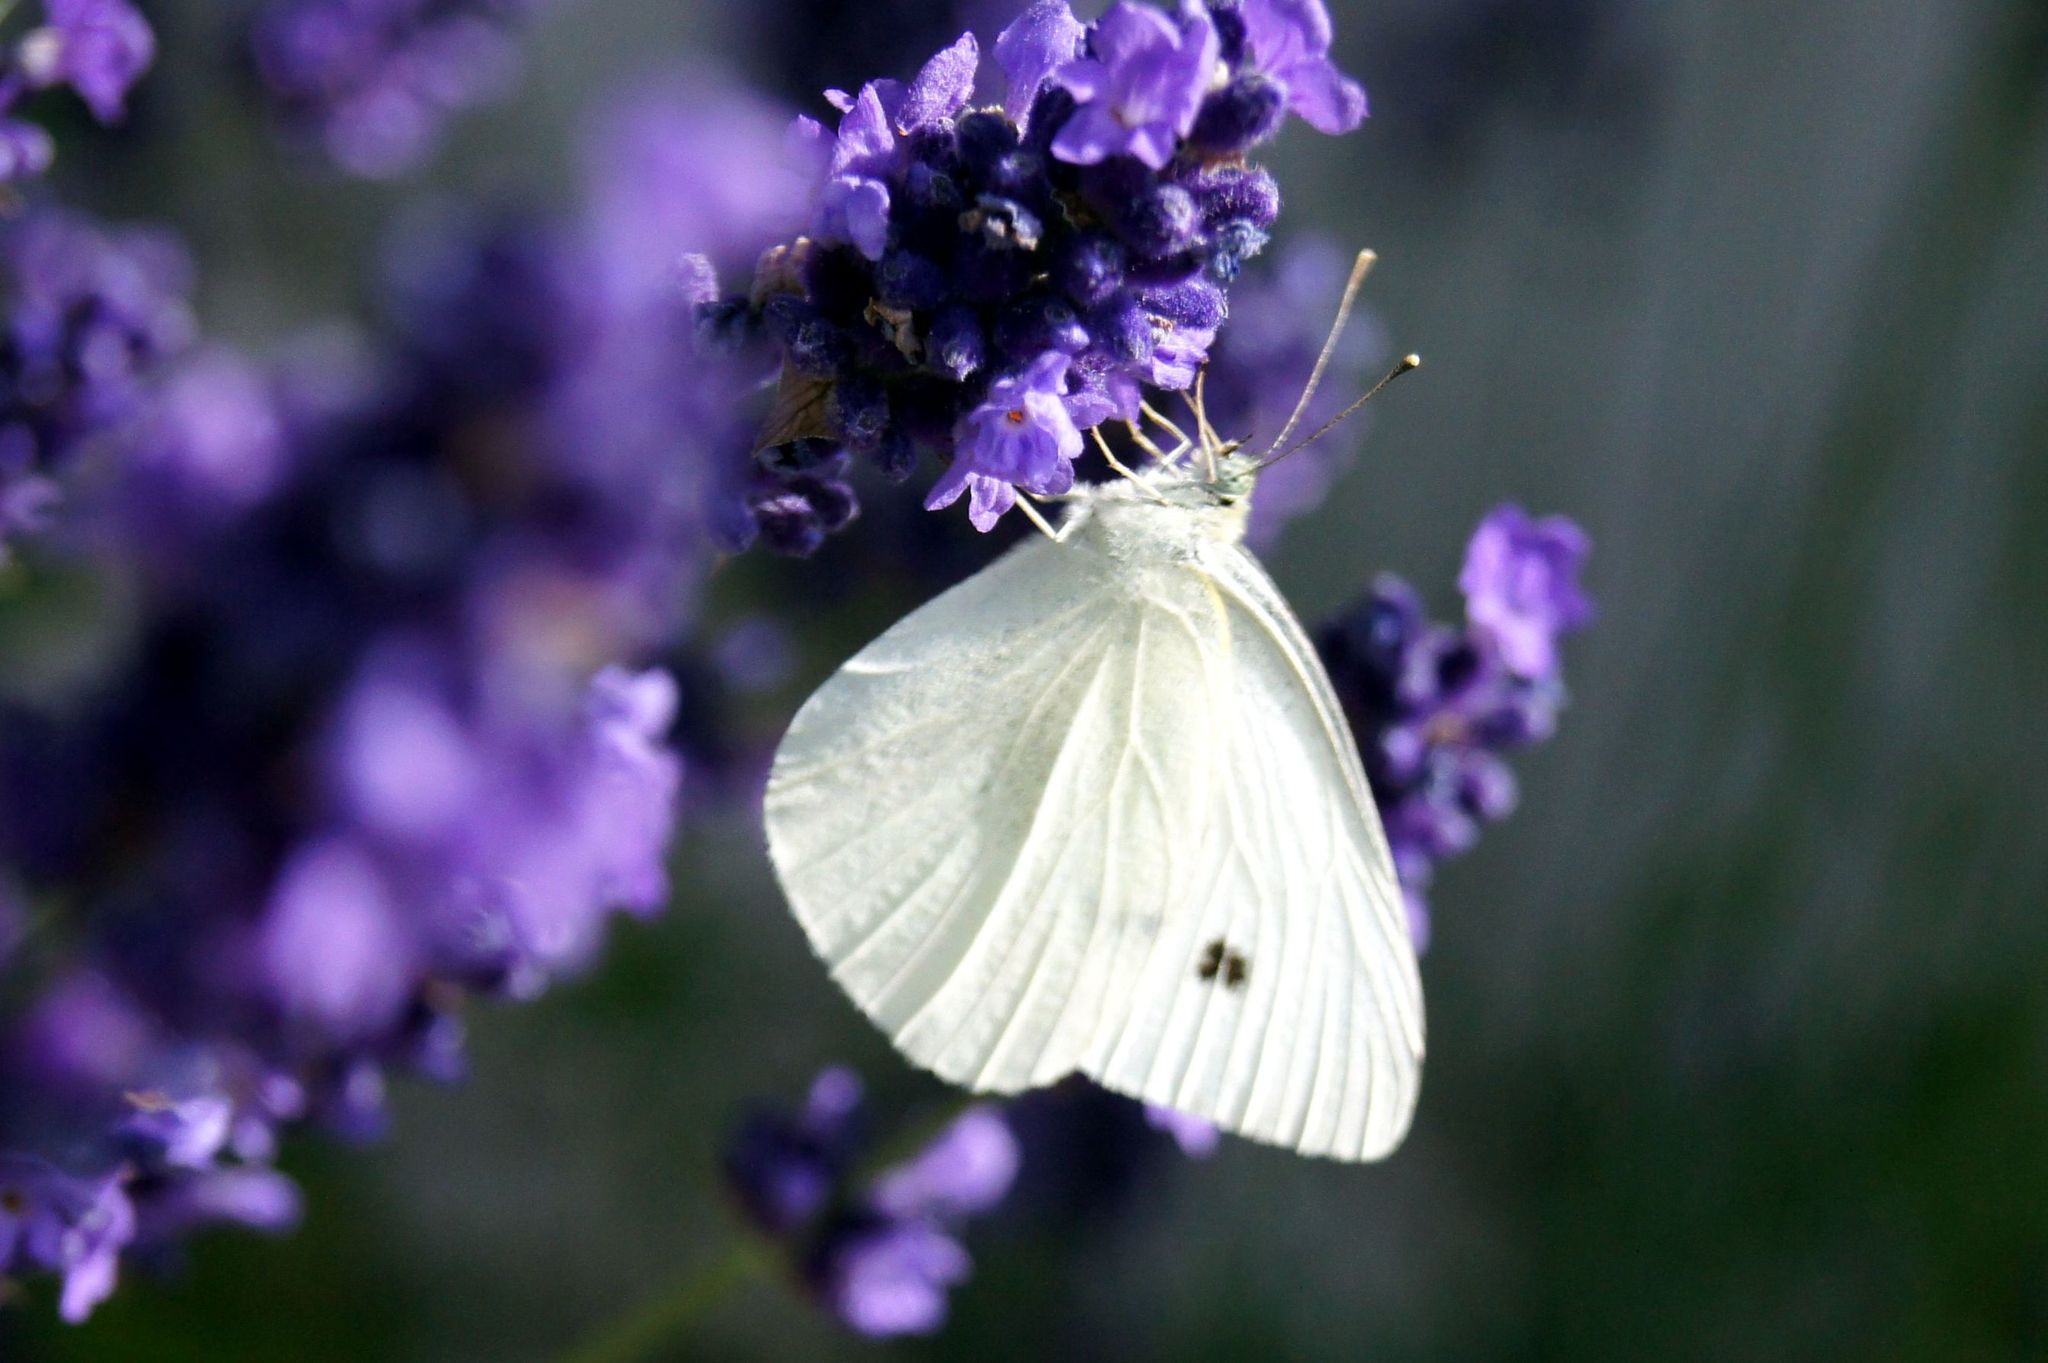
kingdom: Animalia
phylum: Arthropoda
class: Insecta
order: Lepidoptera
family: Pieridae
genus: Pieris
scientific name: Pieris rapae
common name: Small white
